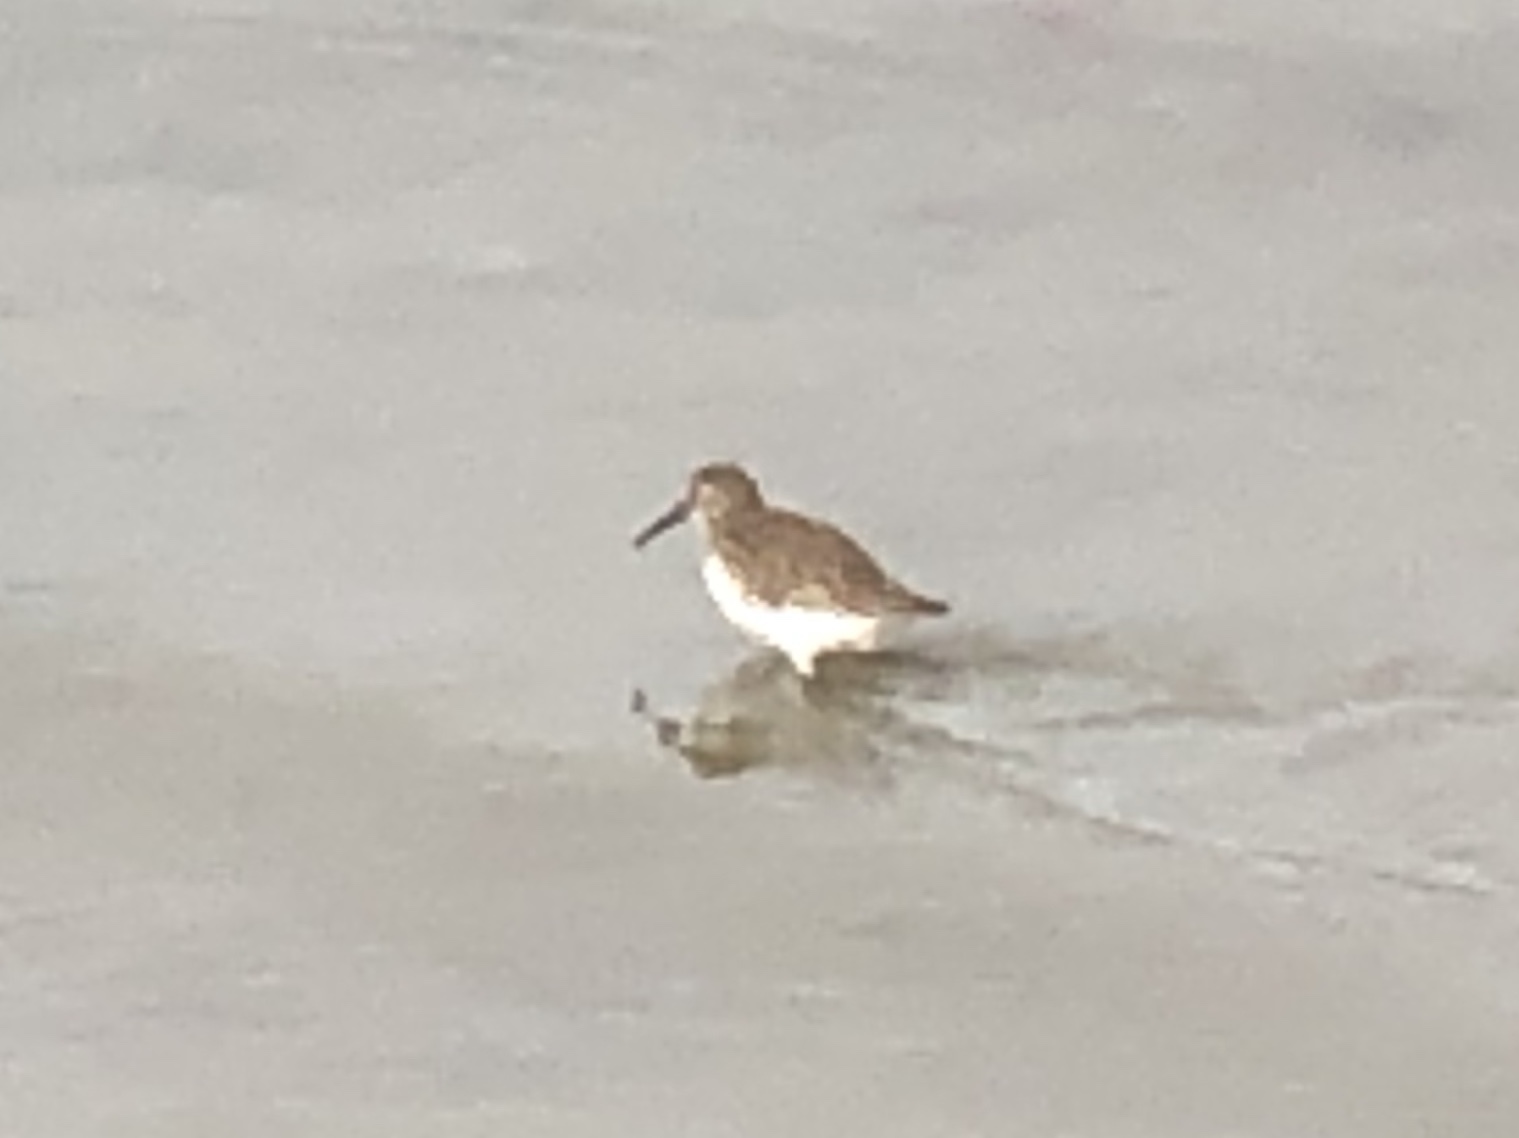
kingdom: Animalia
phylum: Chordata
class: Aves
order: Charadriiformes
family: Scolopacidae
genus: Calidris
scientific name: Calidris alpina
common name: Dunlin
